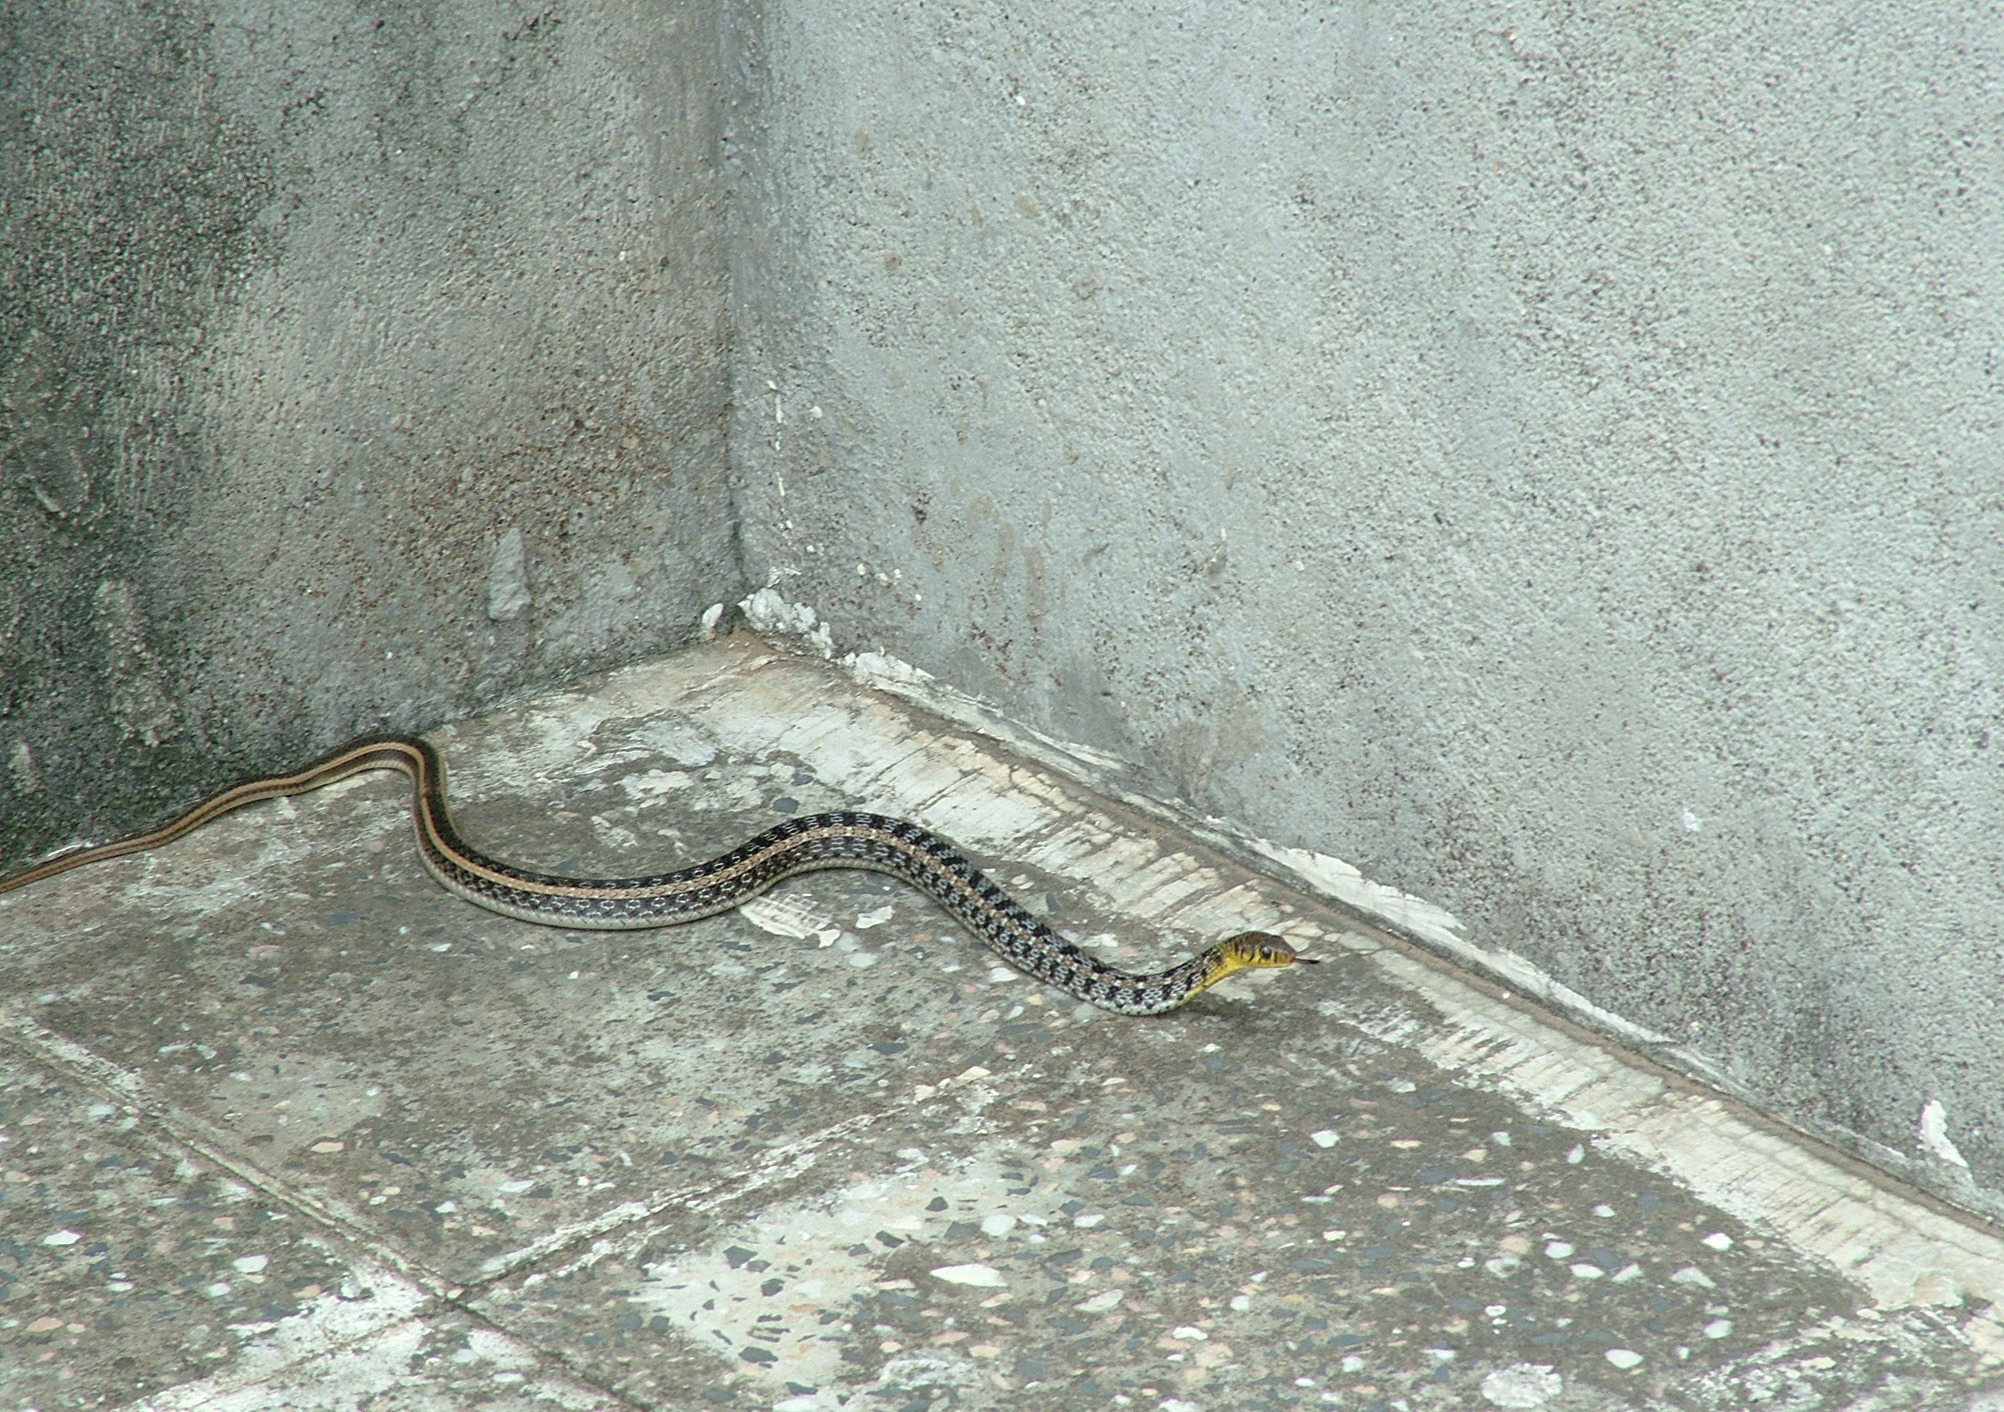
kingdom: Animalia
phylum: Chordata
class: Squamata
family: Colubridae
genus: Amphiesma
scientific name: Amphiesma stolatum
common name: Buff striped keelback
